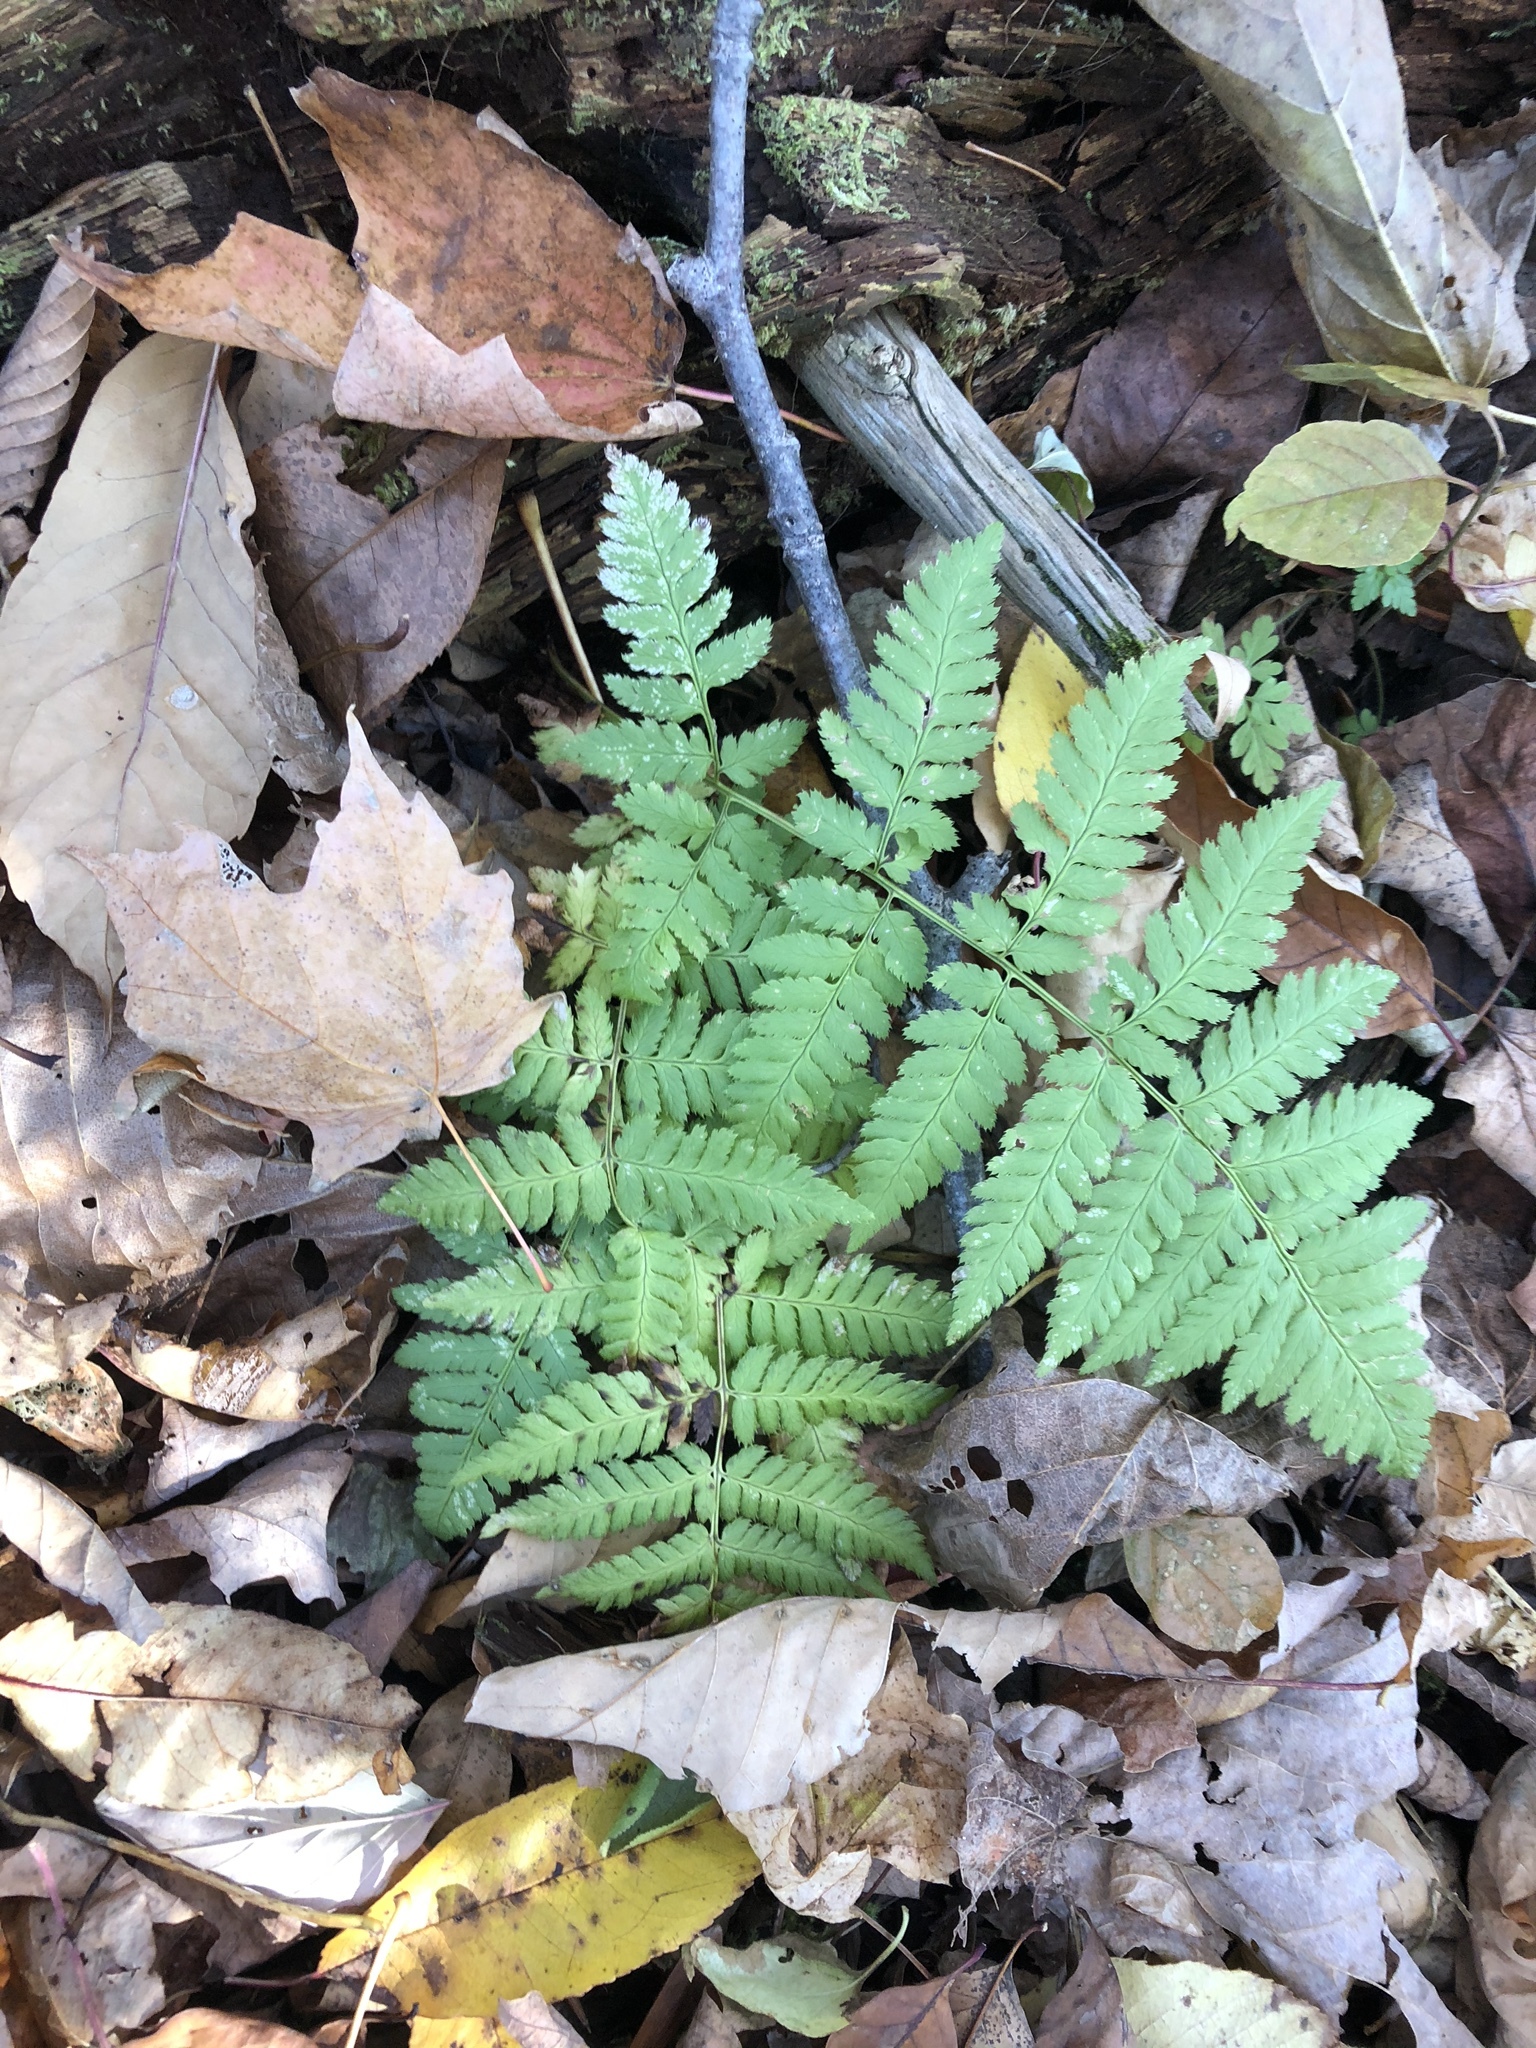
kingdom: Plantae
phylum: Tracheophyta
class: Polypodiopsida
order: Polypodiales
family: Dryopteridaceae
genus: Dryopteris
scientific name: Dryopteris carthusiana
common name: Narrow buckler-fern
